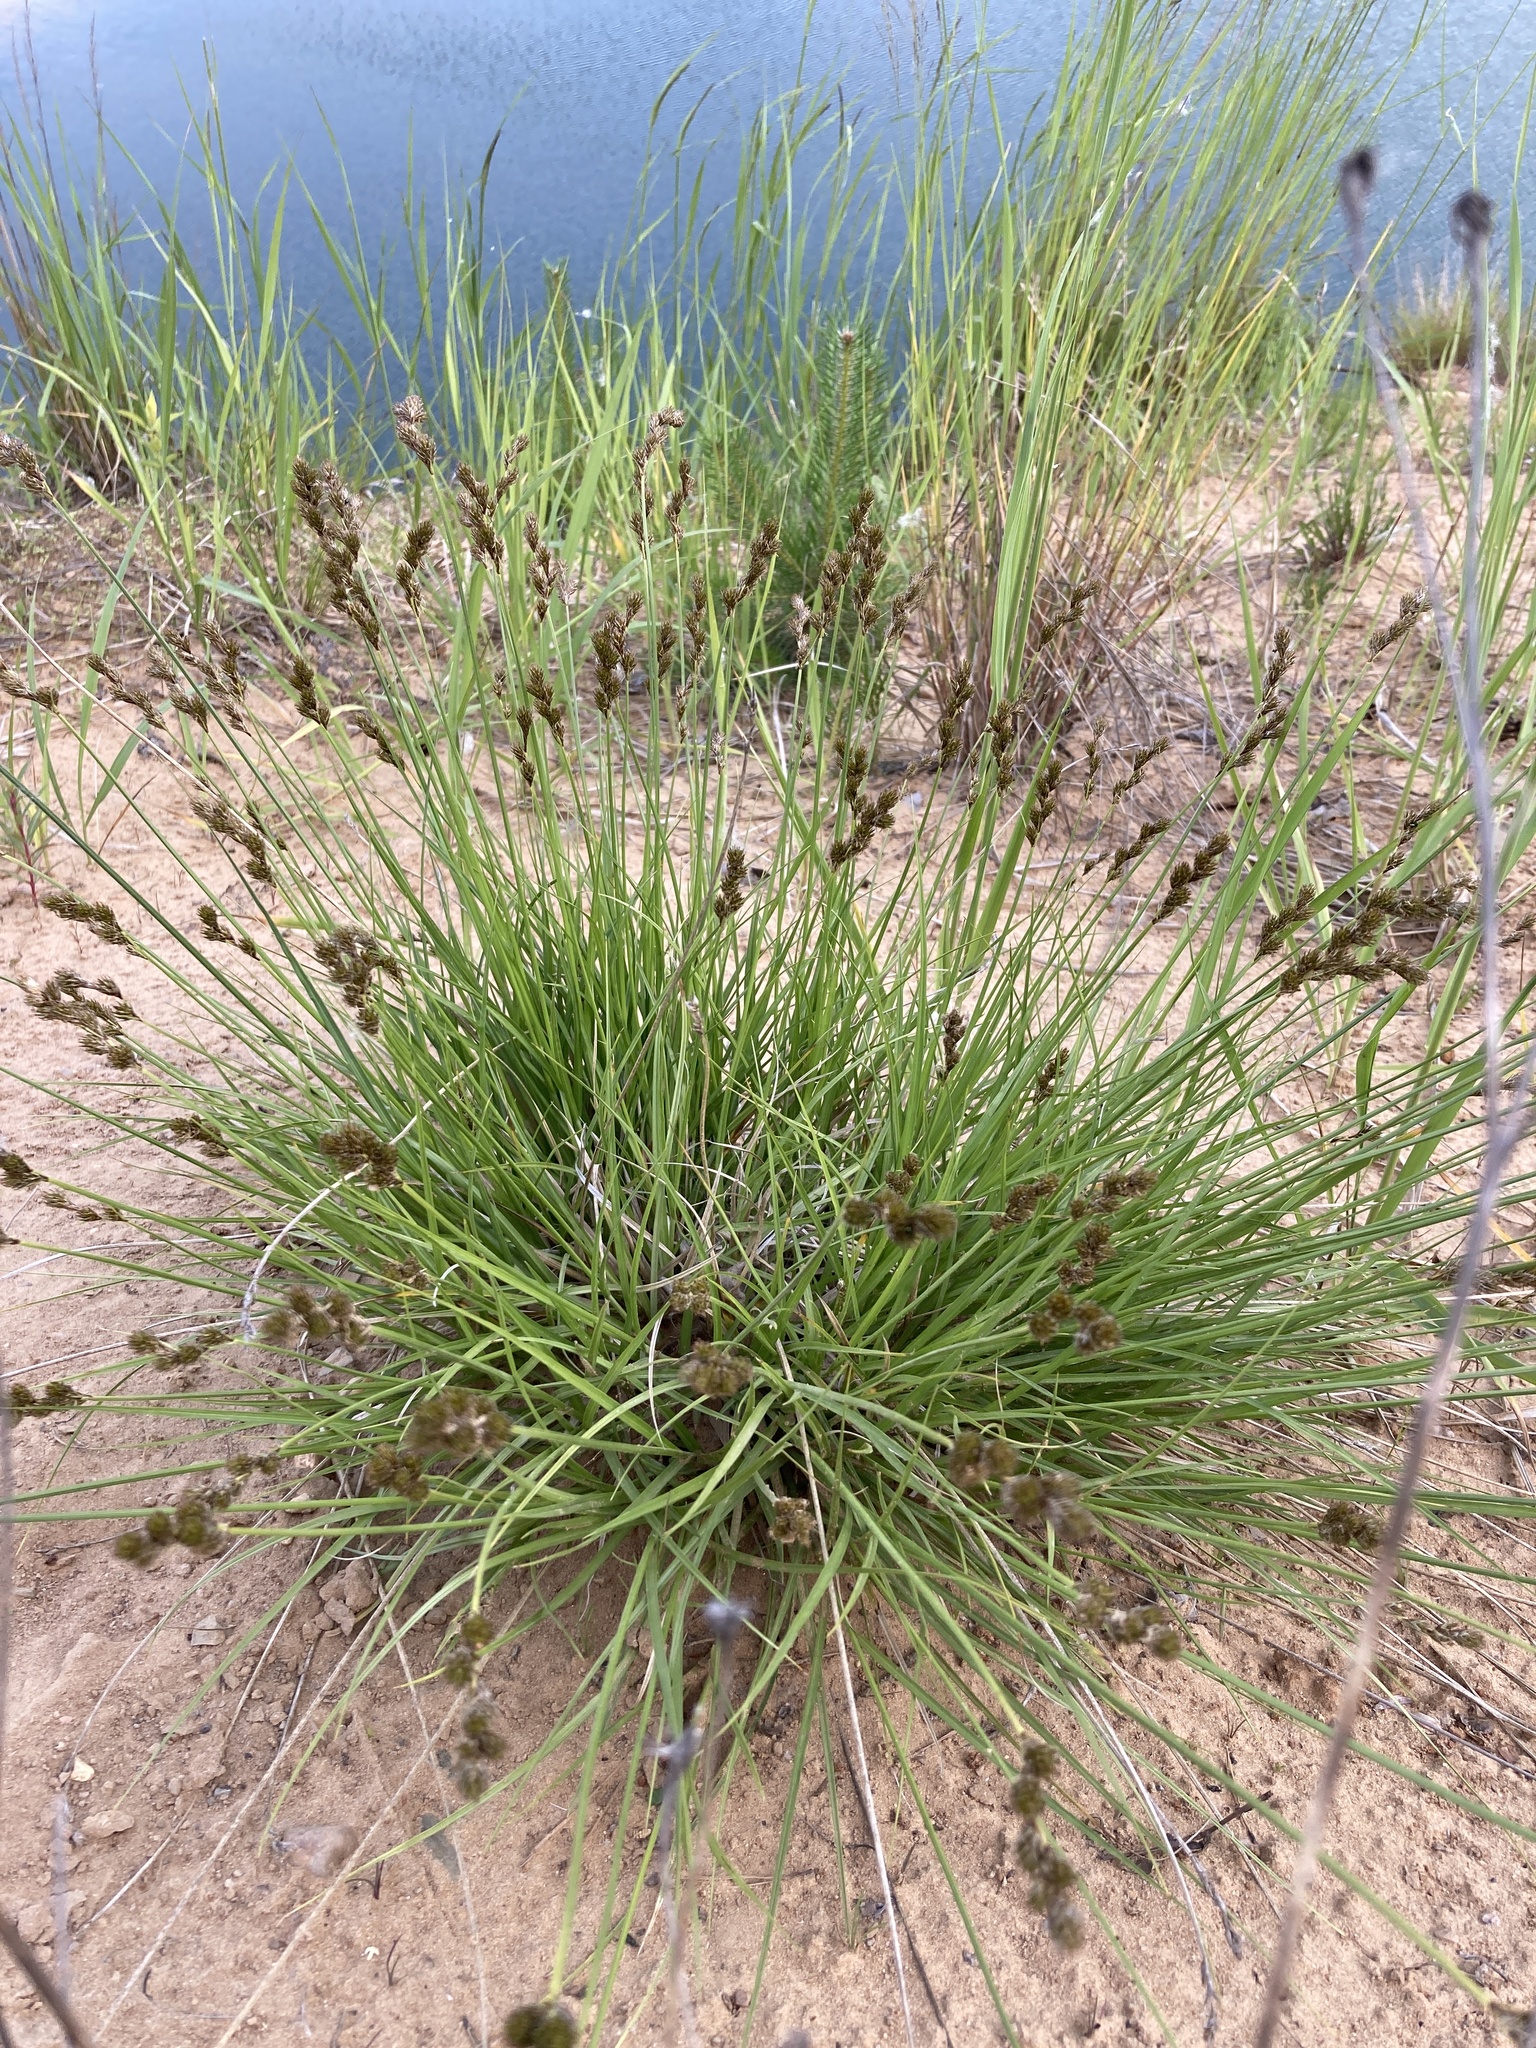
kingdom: Plantae
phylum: Tracheophyta
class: Liliopsida
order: Poales
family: Cyperaceae
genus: Carex
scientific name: Carex leporina
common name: Oval sedge
